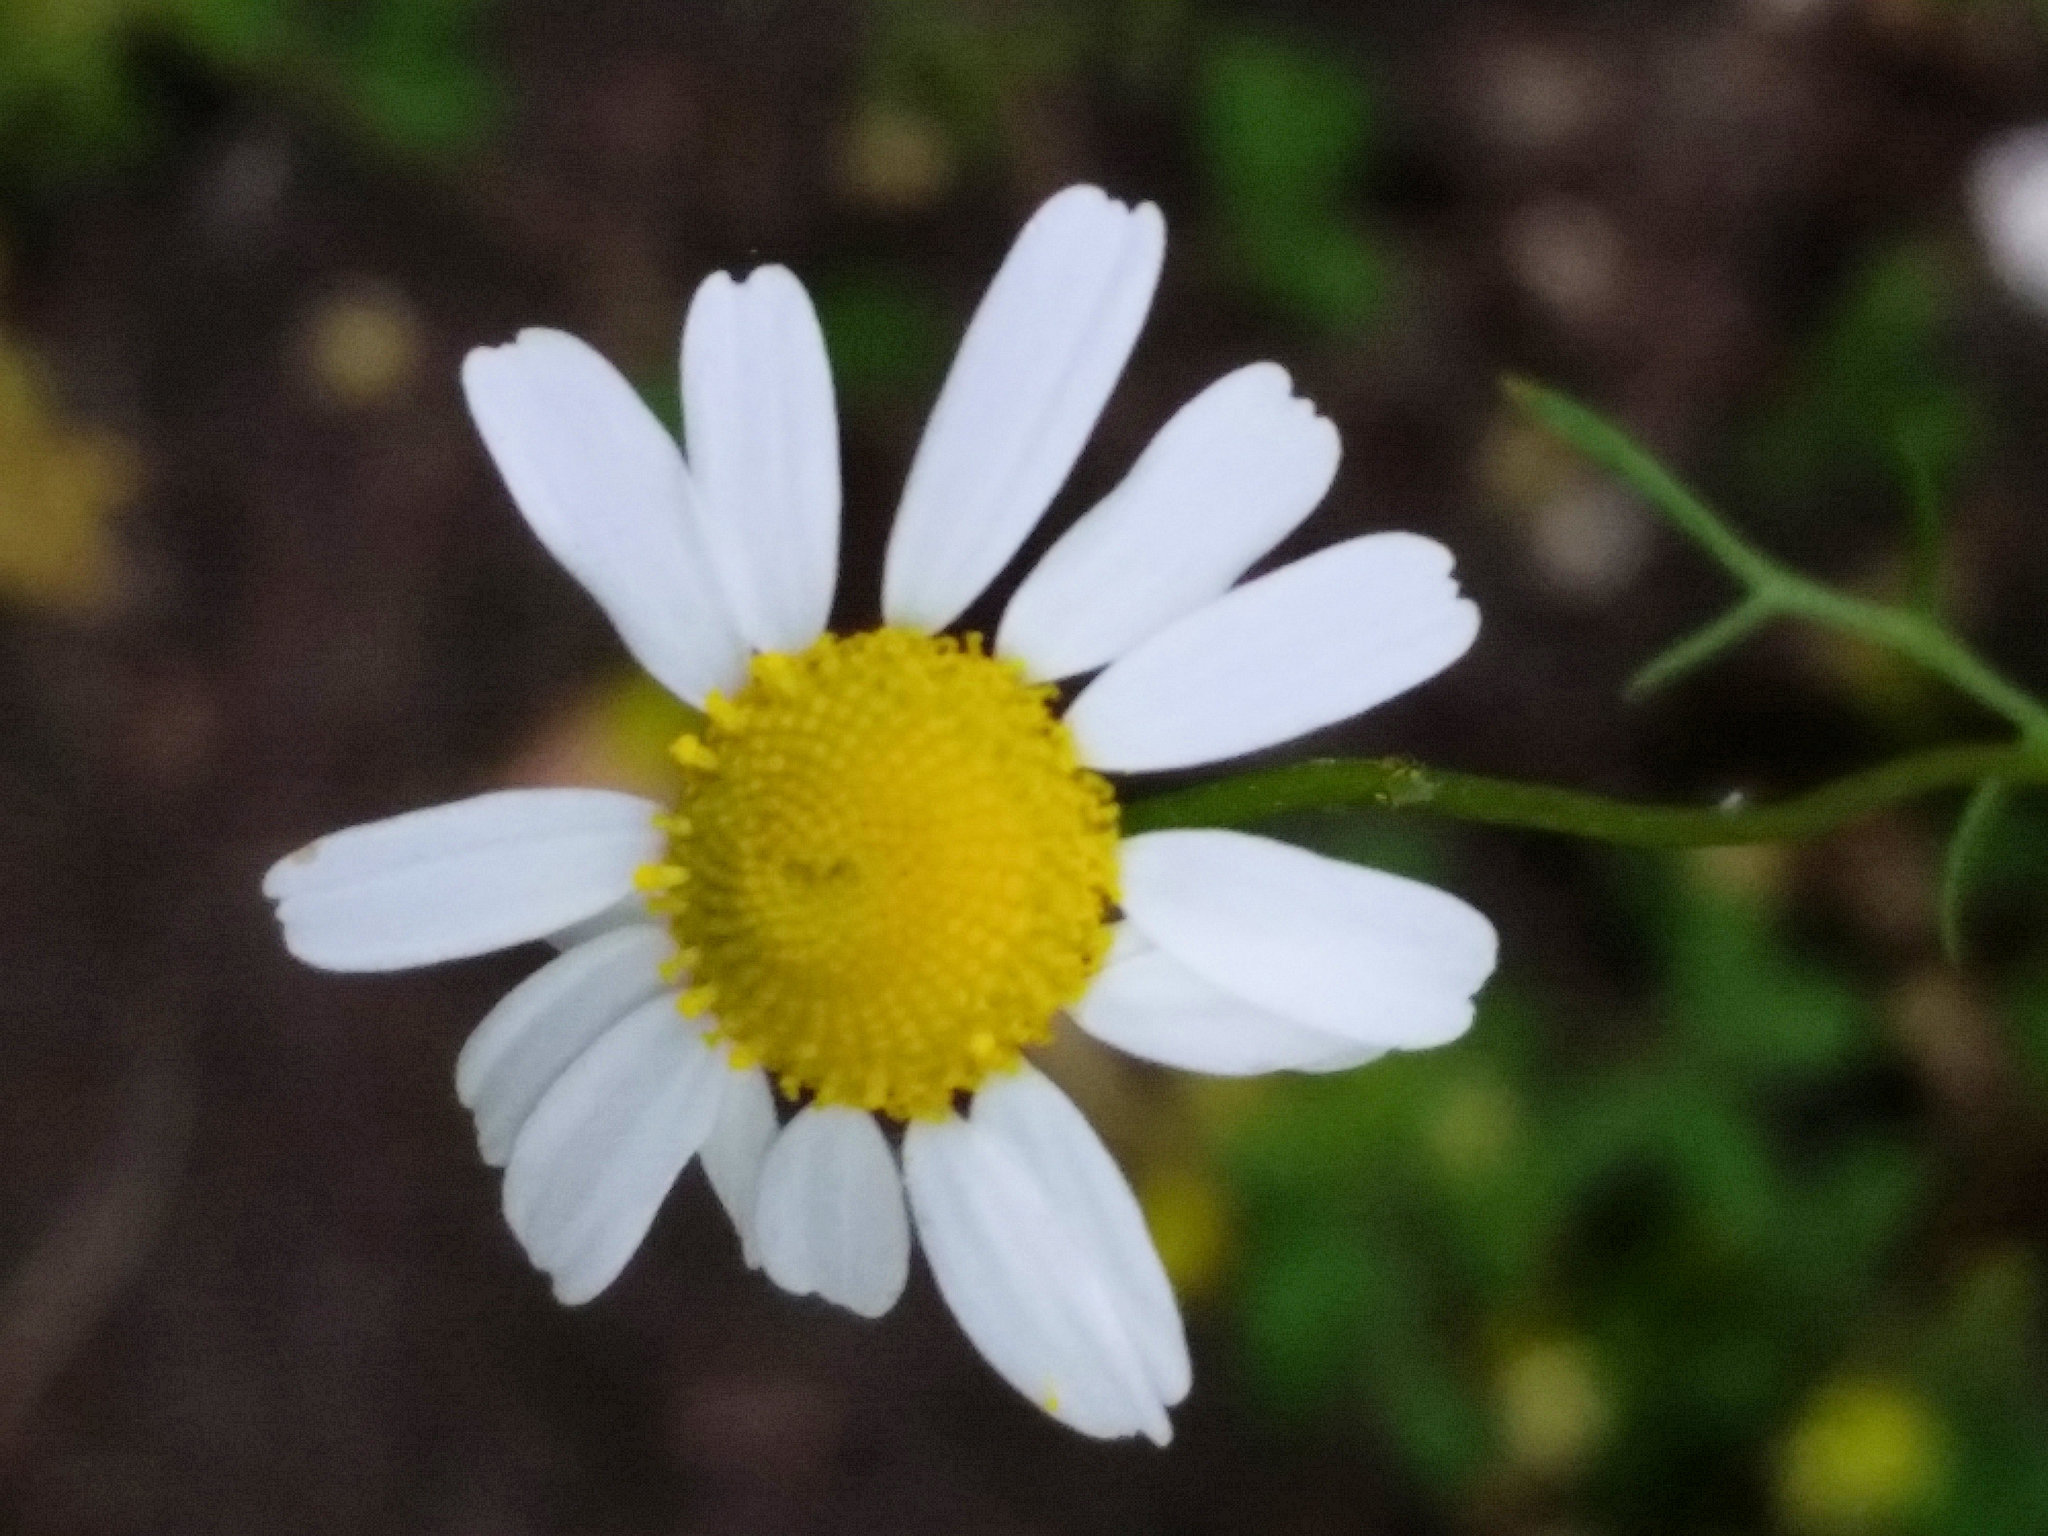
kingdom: Plantae
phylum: Tracheophyta
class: Magnoliopsida
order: Asterales
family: Asteraceae
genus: Matricaria
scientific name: Matricaria chamomilla
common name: Scented mayweed
